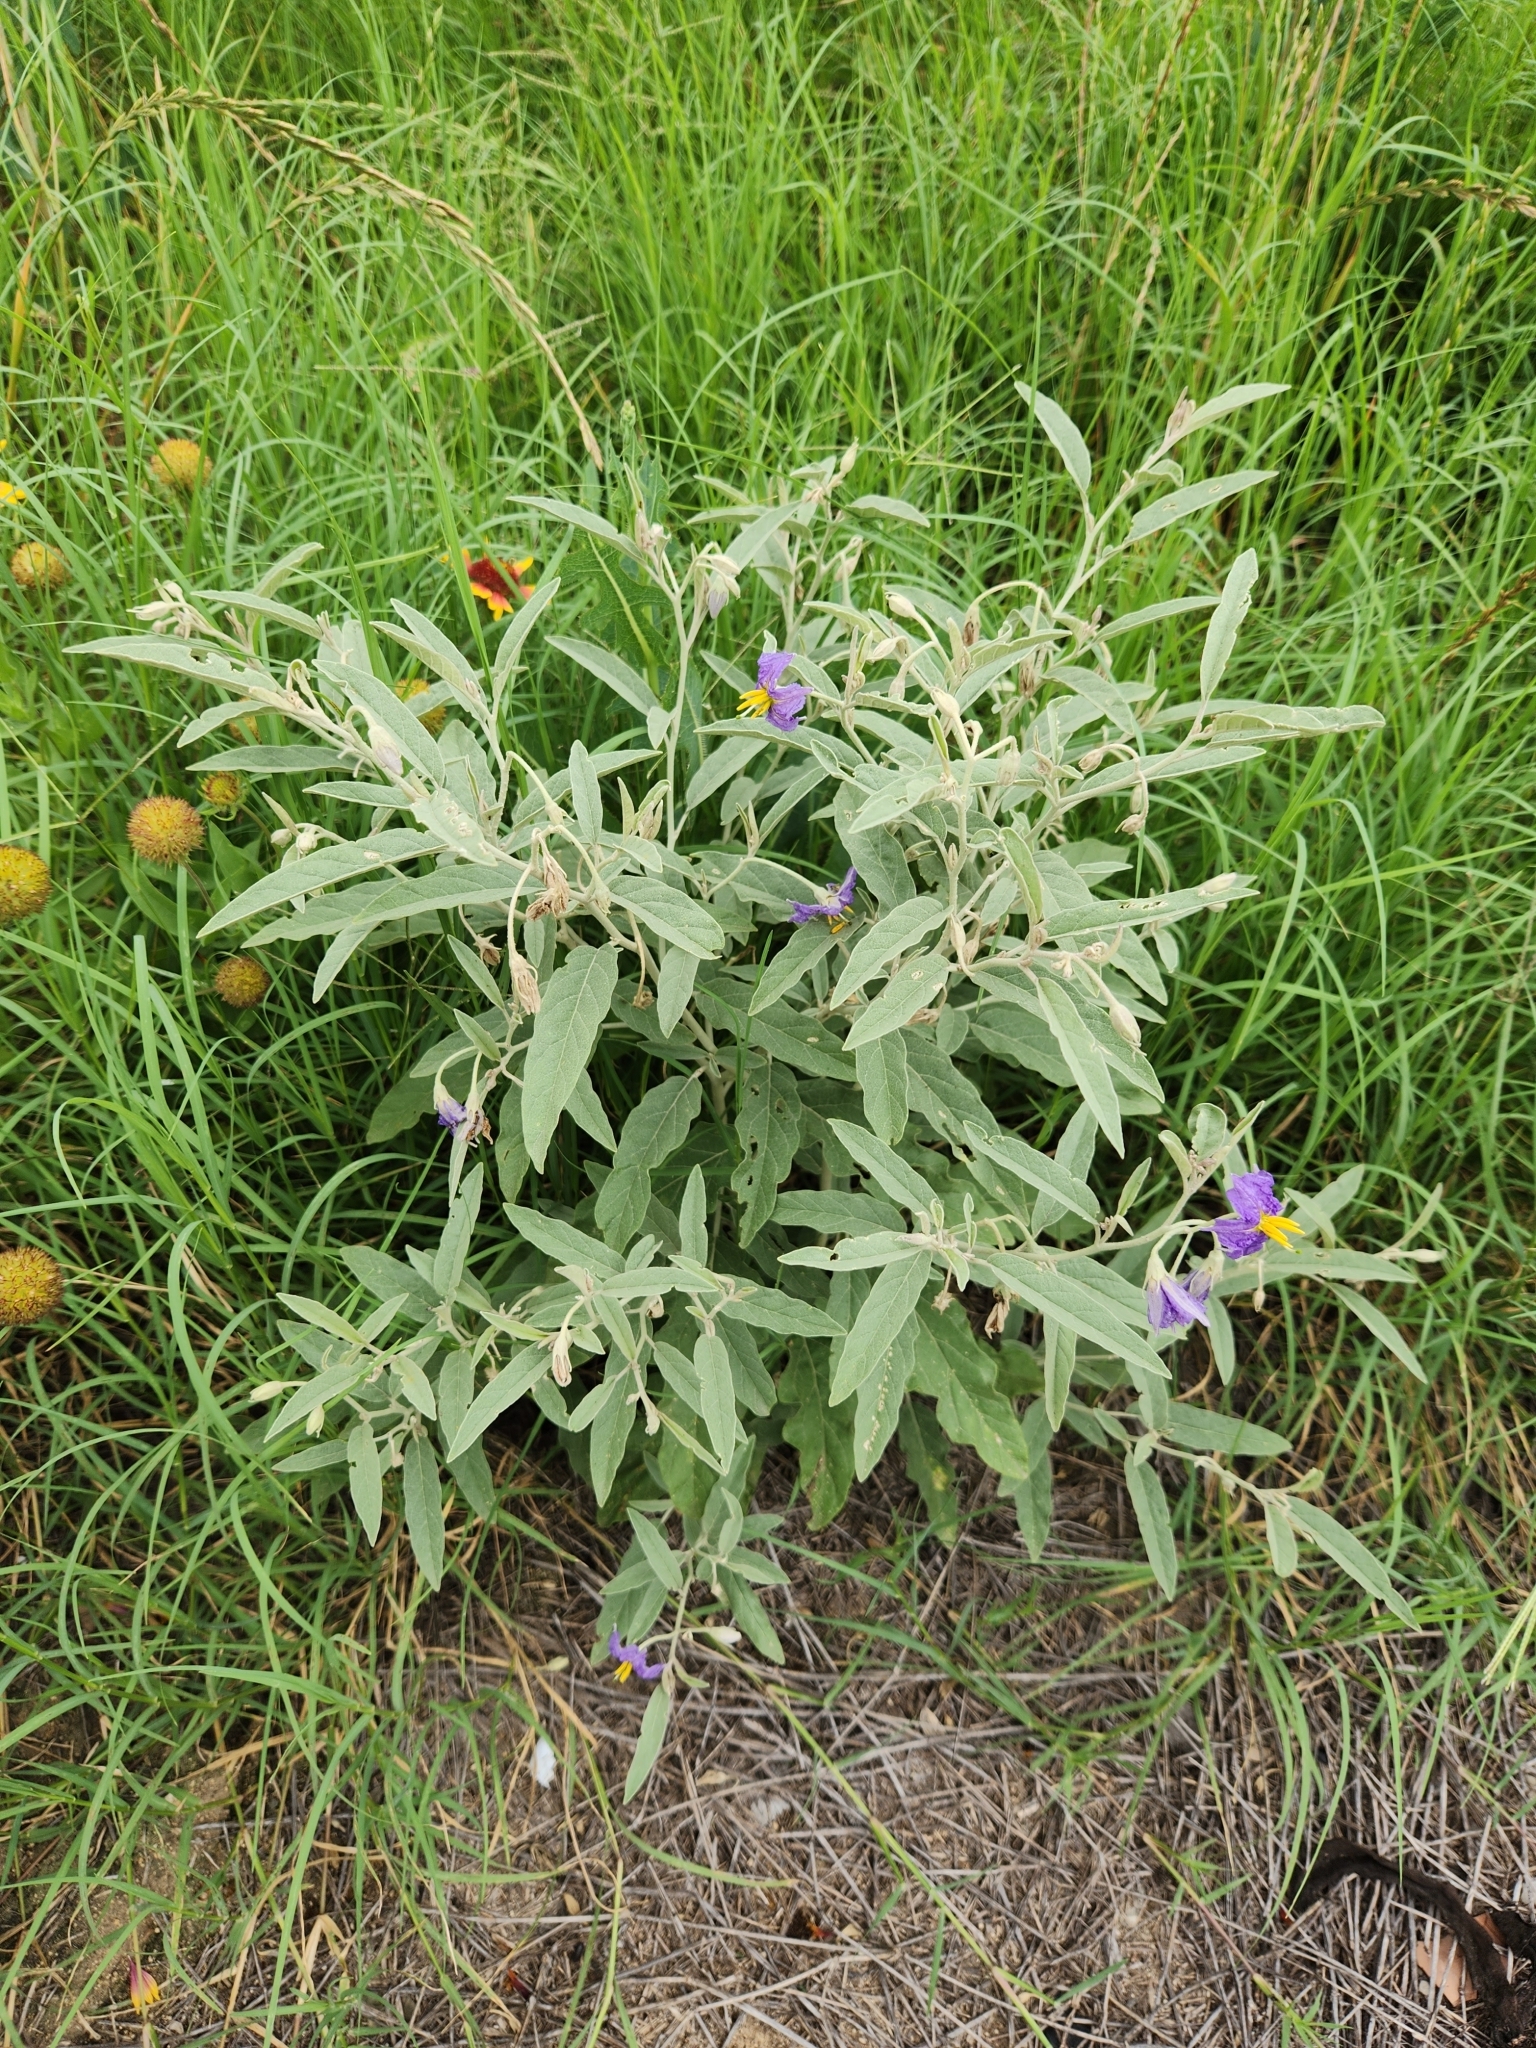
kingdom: Plantae
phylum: Tracheophyta
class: Magnoliopsida
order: Solanales
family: Solanaceae
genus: Solanum
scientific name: Solanum elaeagnifolium
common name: Silverleaf nightshade
